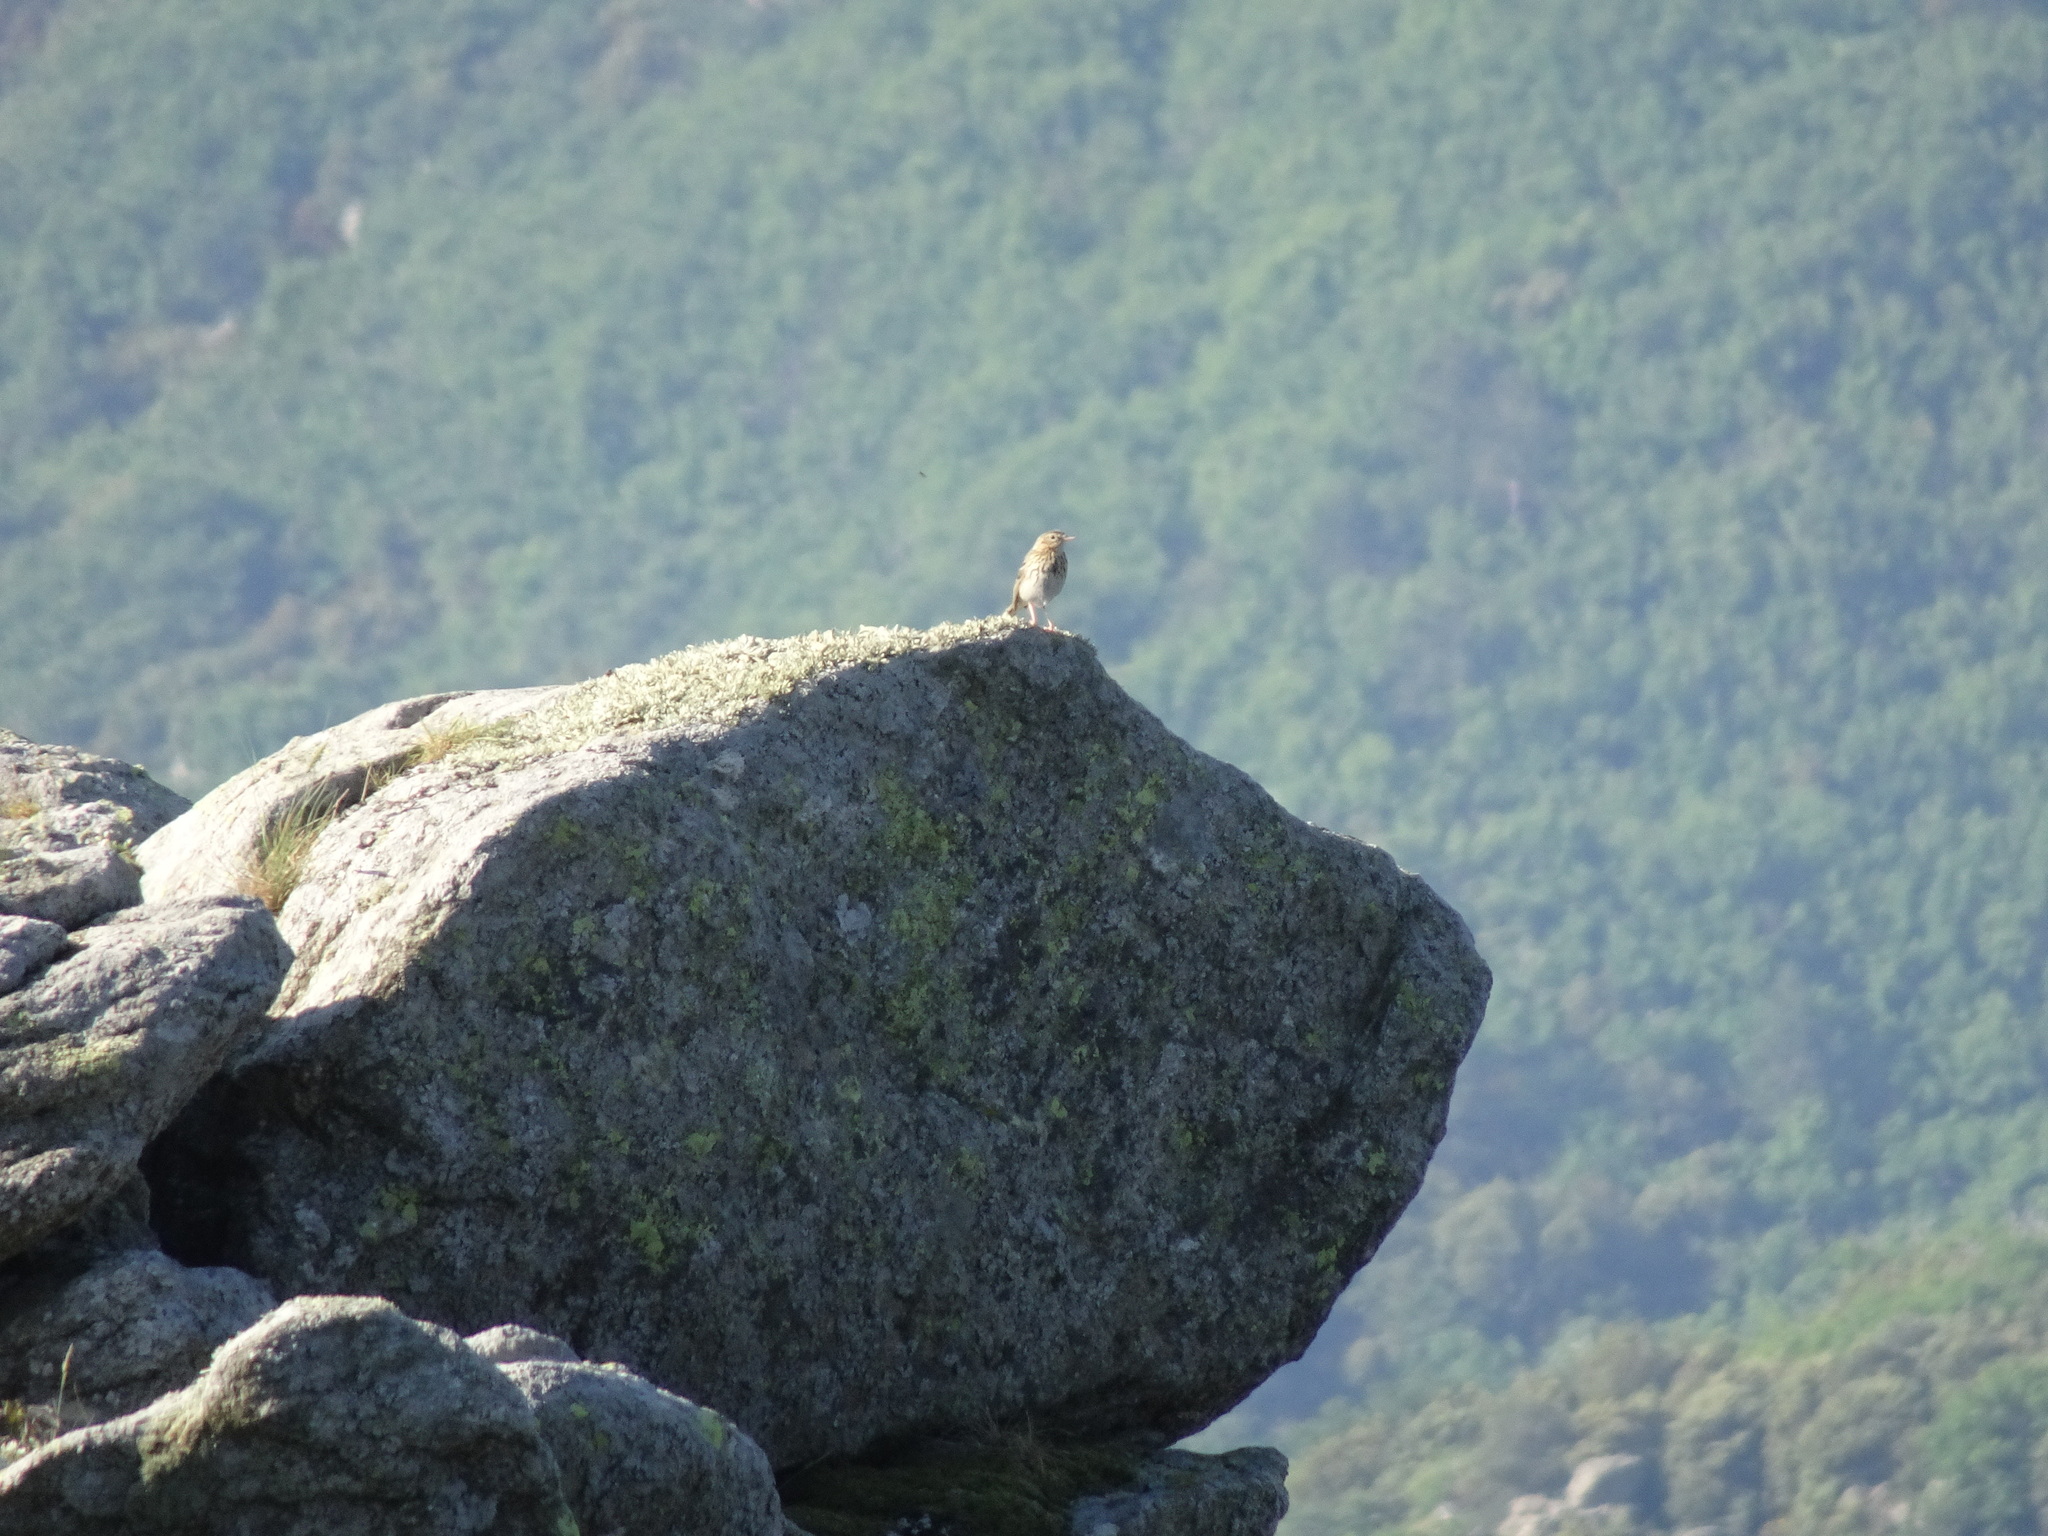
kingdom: Animalia
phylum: Chordata
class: Aves
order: Passeriformes
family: Motacillidae
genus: Anthus
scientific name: Anthus trivialis
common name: Tree pipit
